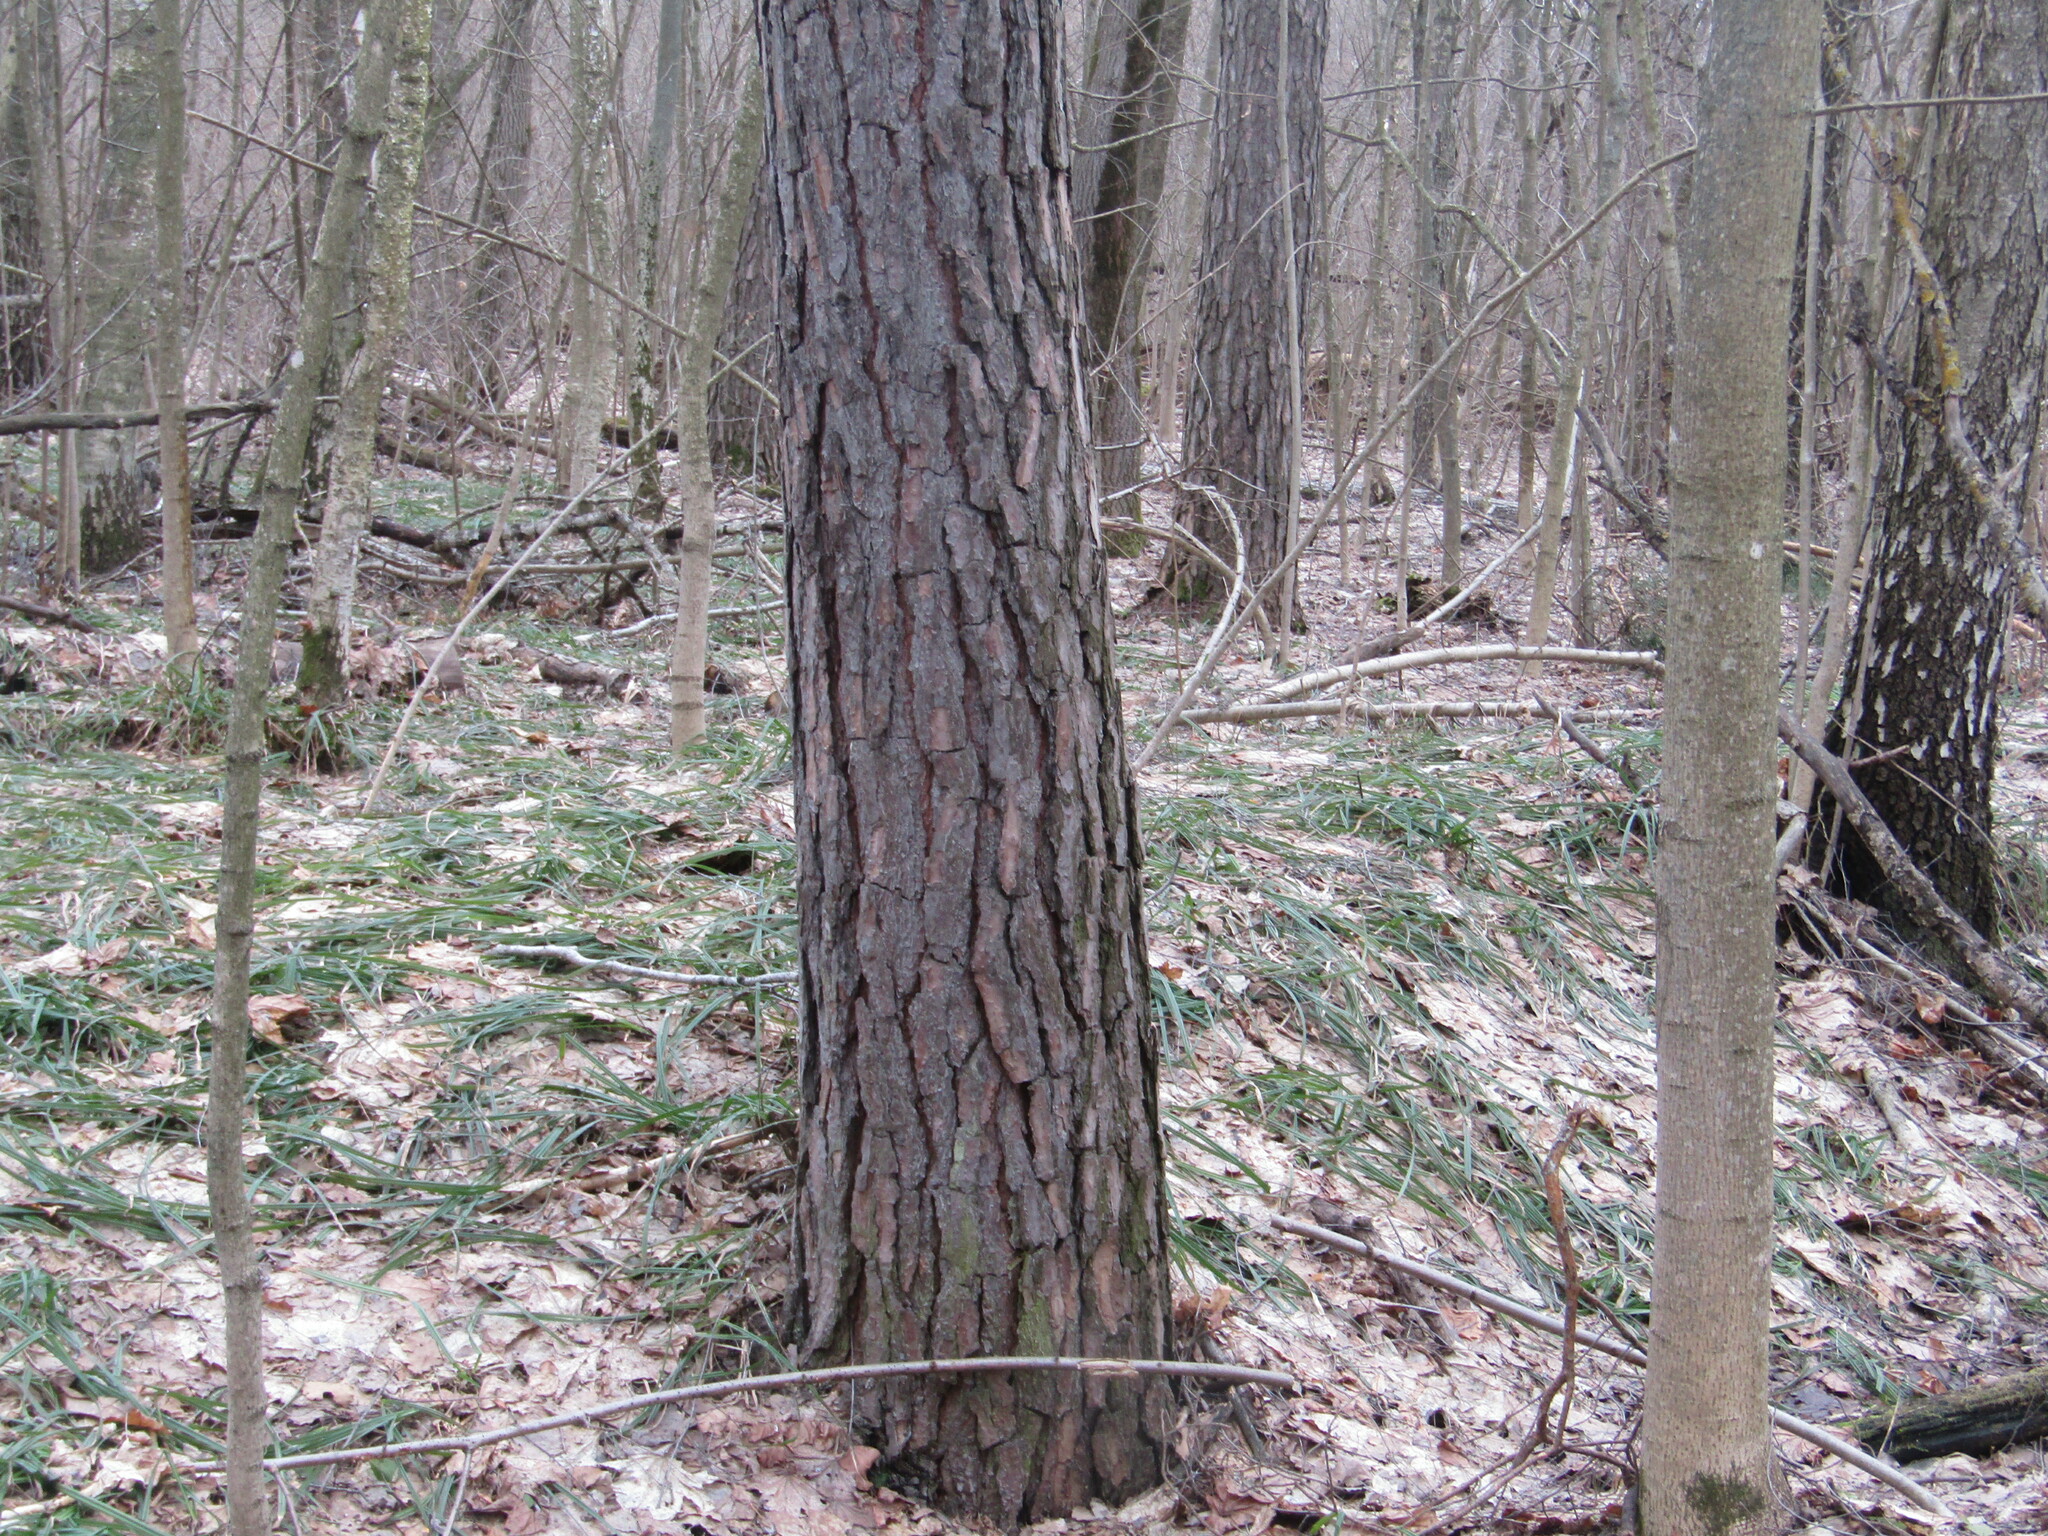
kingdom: Plantae
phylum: Tracheophyta
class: Pinopsida
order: Pinales
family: Pinaceae
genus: Pinus
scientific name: Pinus sylvestris
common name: Scots pine
